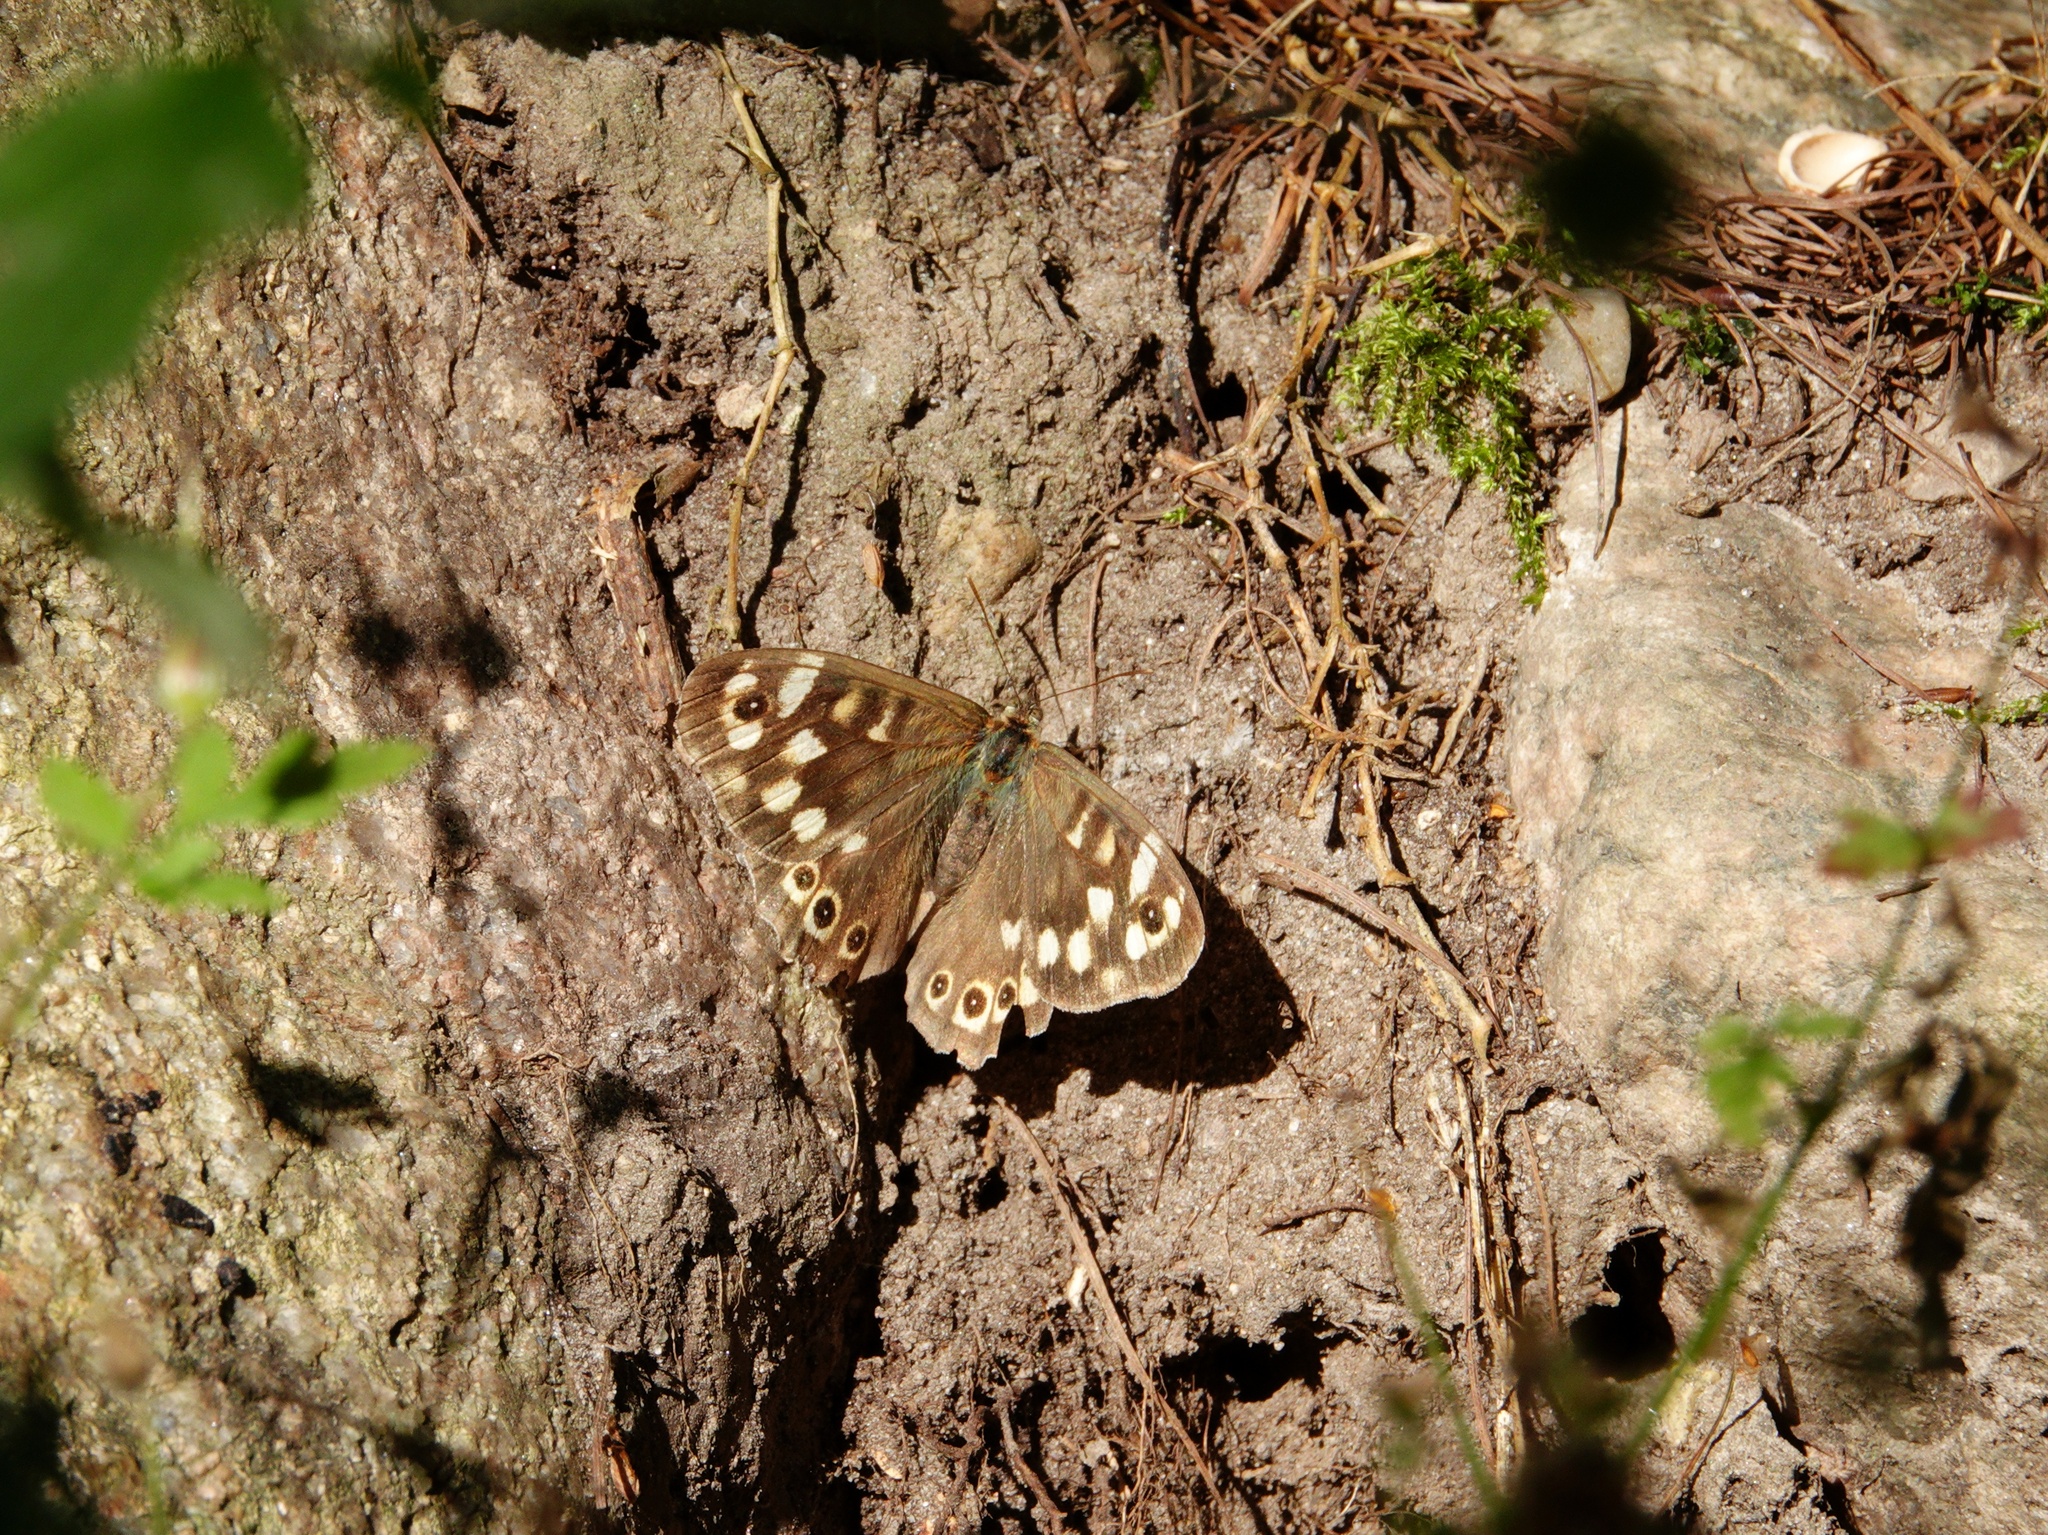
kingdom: Animalia
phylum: Arthropoda
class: Insecta
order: Lepidoptera
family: Nymphalidae
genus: Pararge
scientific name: Pararge aegeria
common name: Speckled wood
